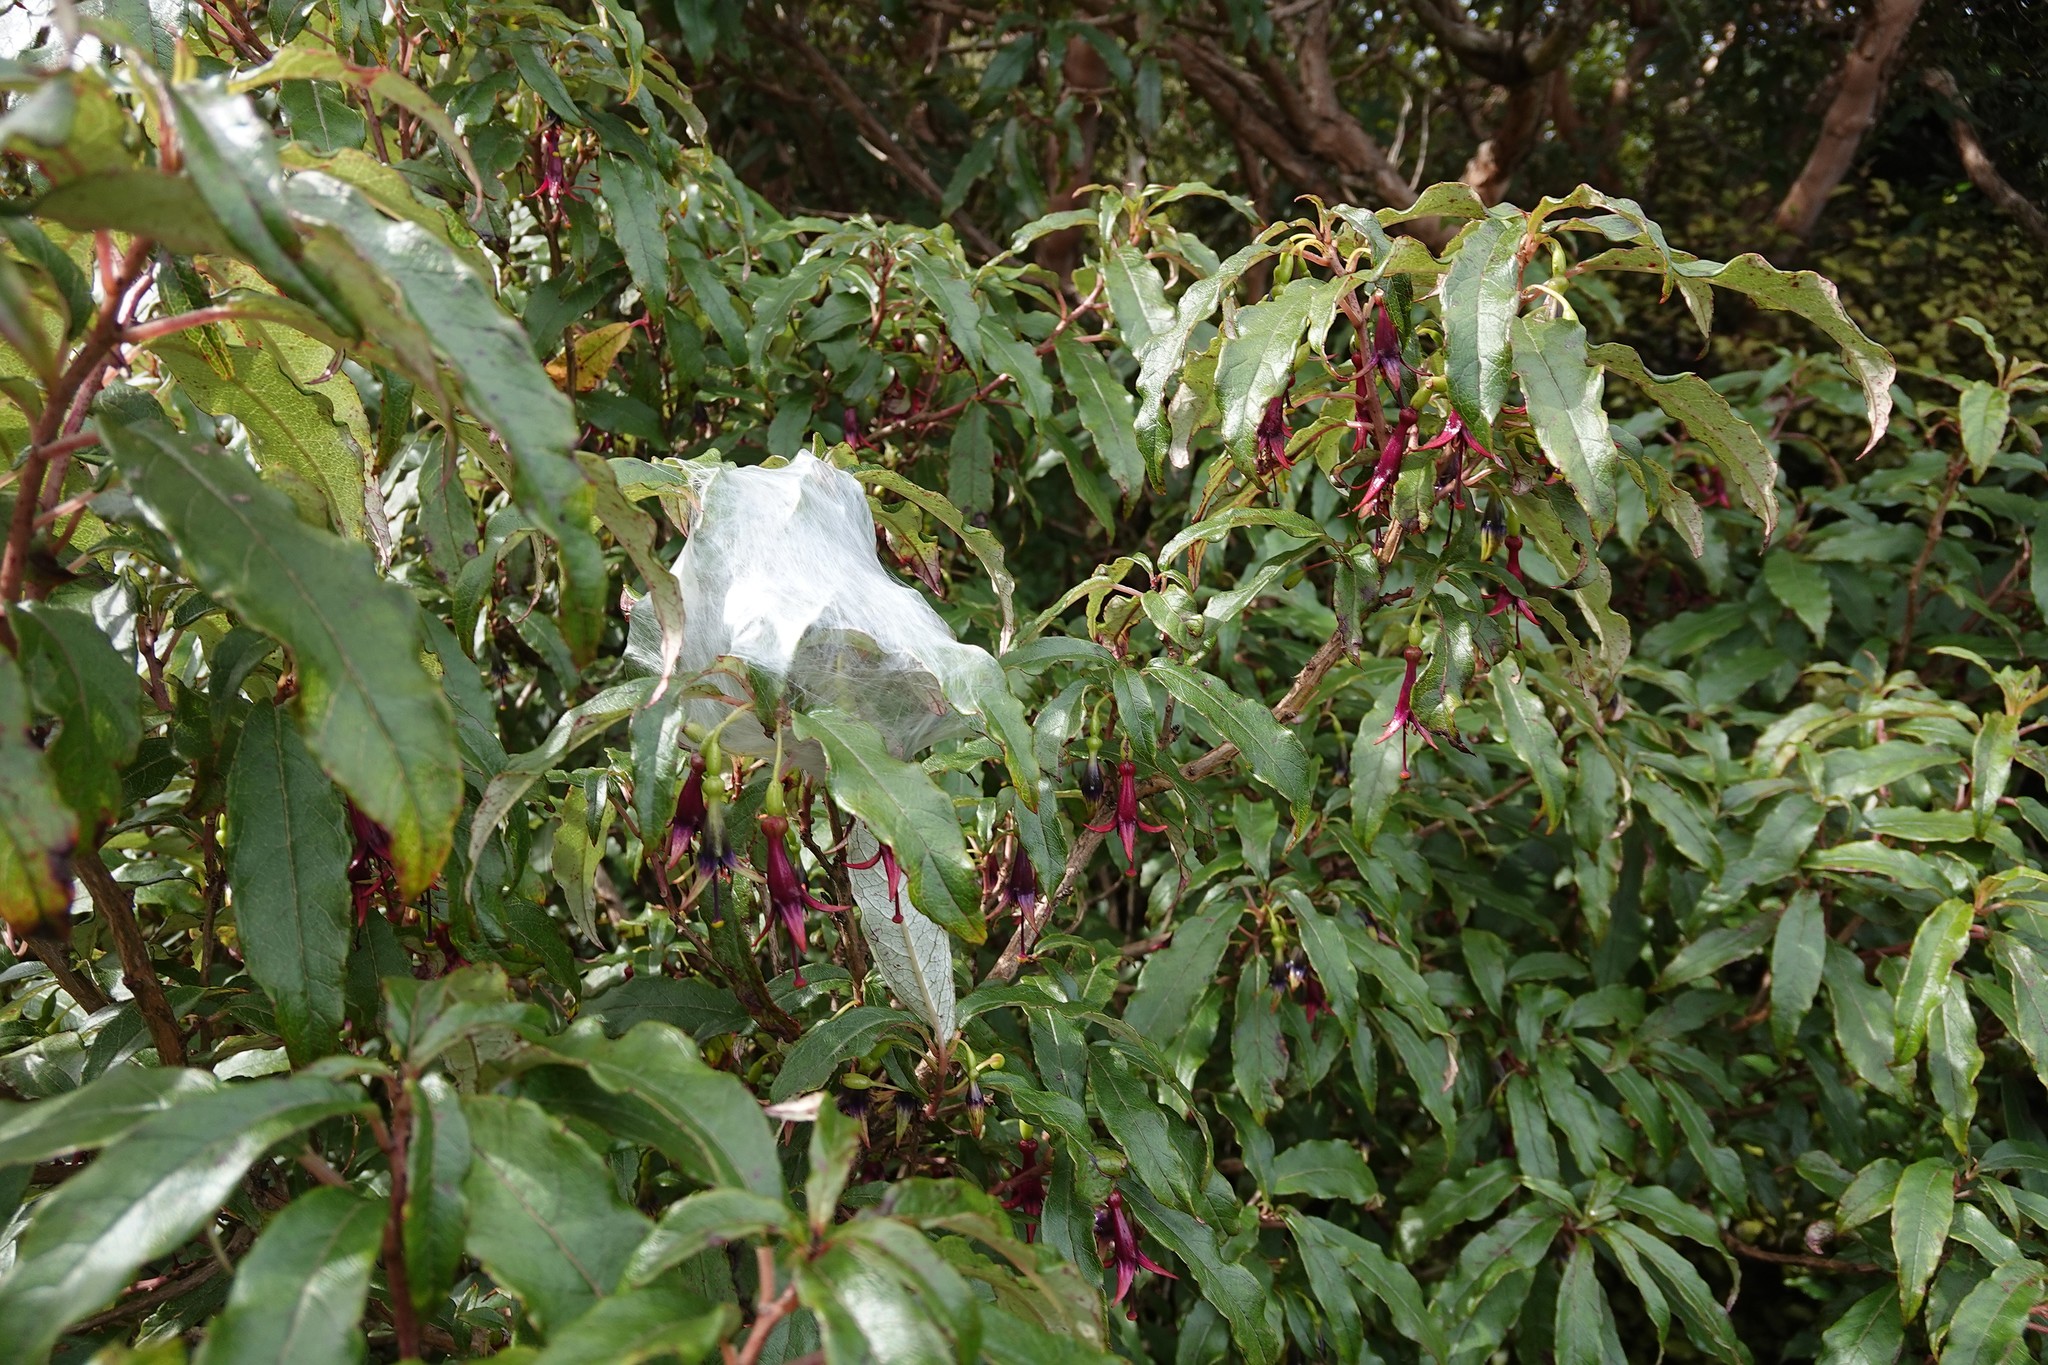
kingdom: Plantae
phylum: Tracheophyta
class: Magnoliopsida
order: Myrtales
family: Onagraceae
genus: Fuchsia
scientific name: Fuchsia excorticata
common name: Tree fuchsia
